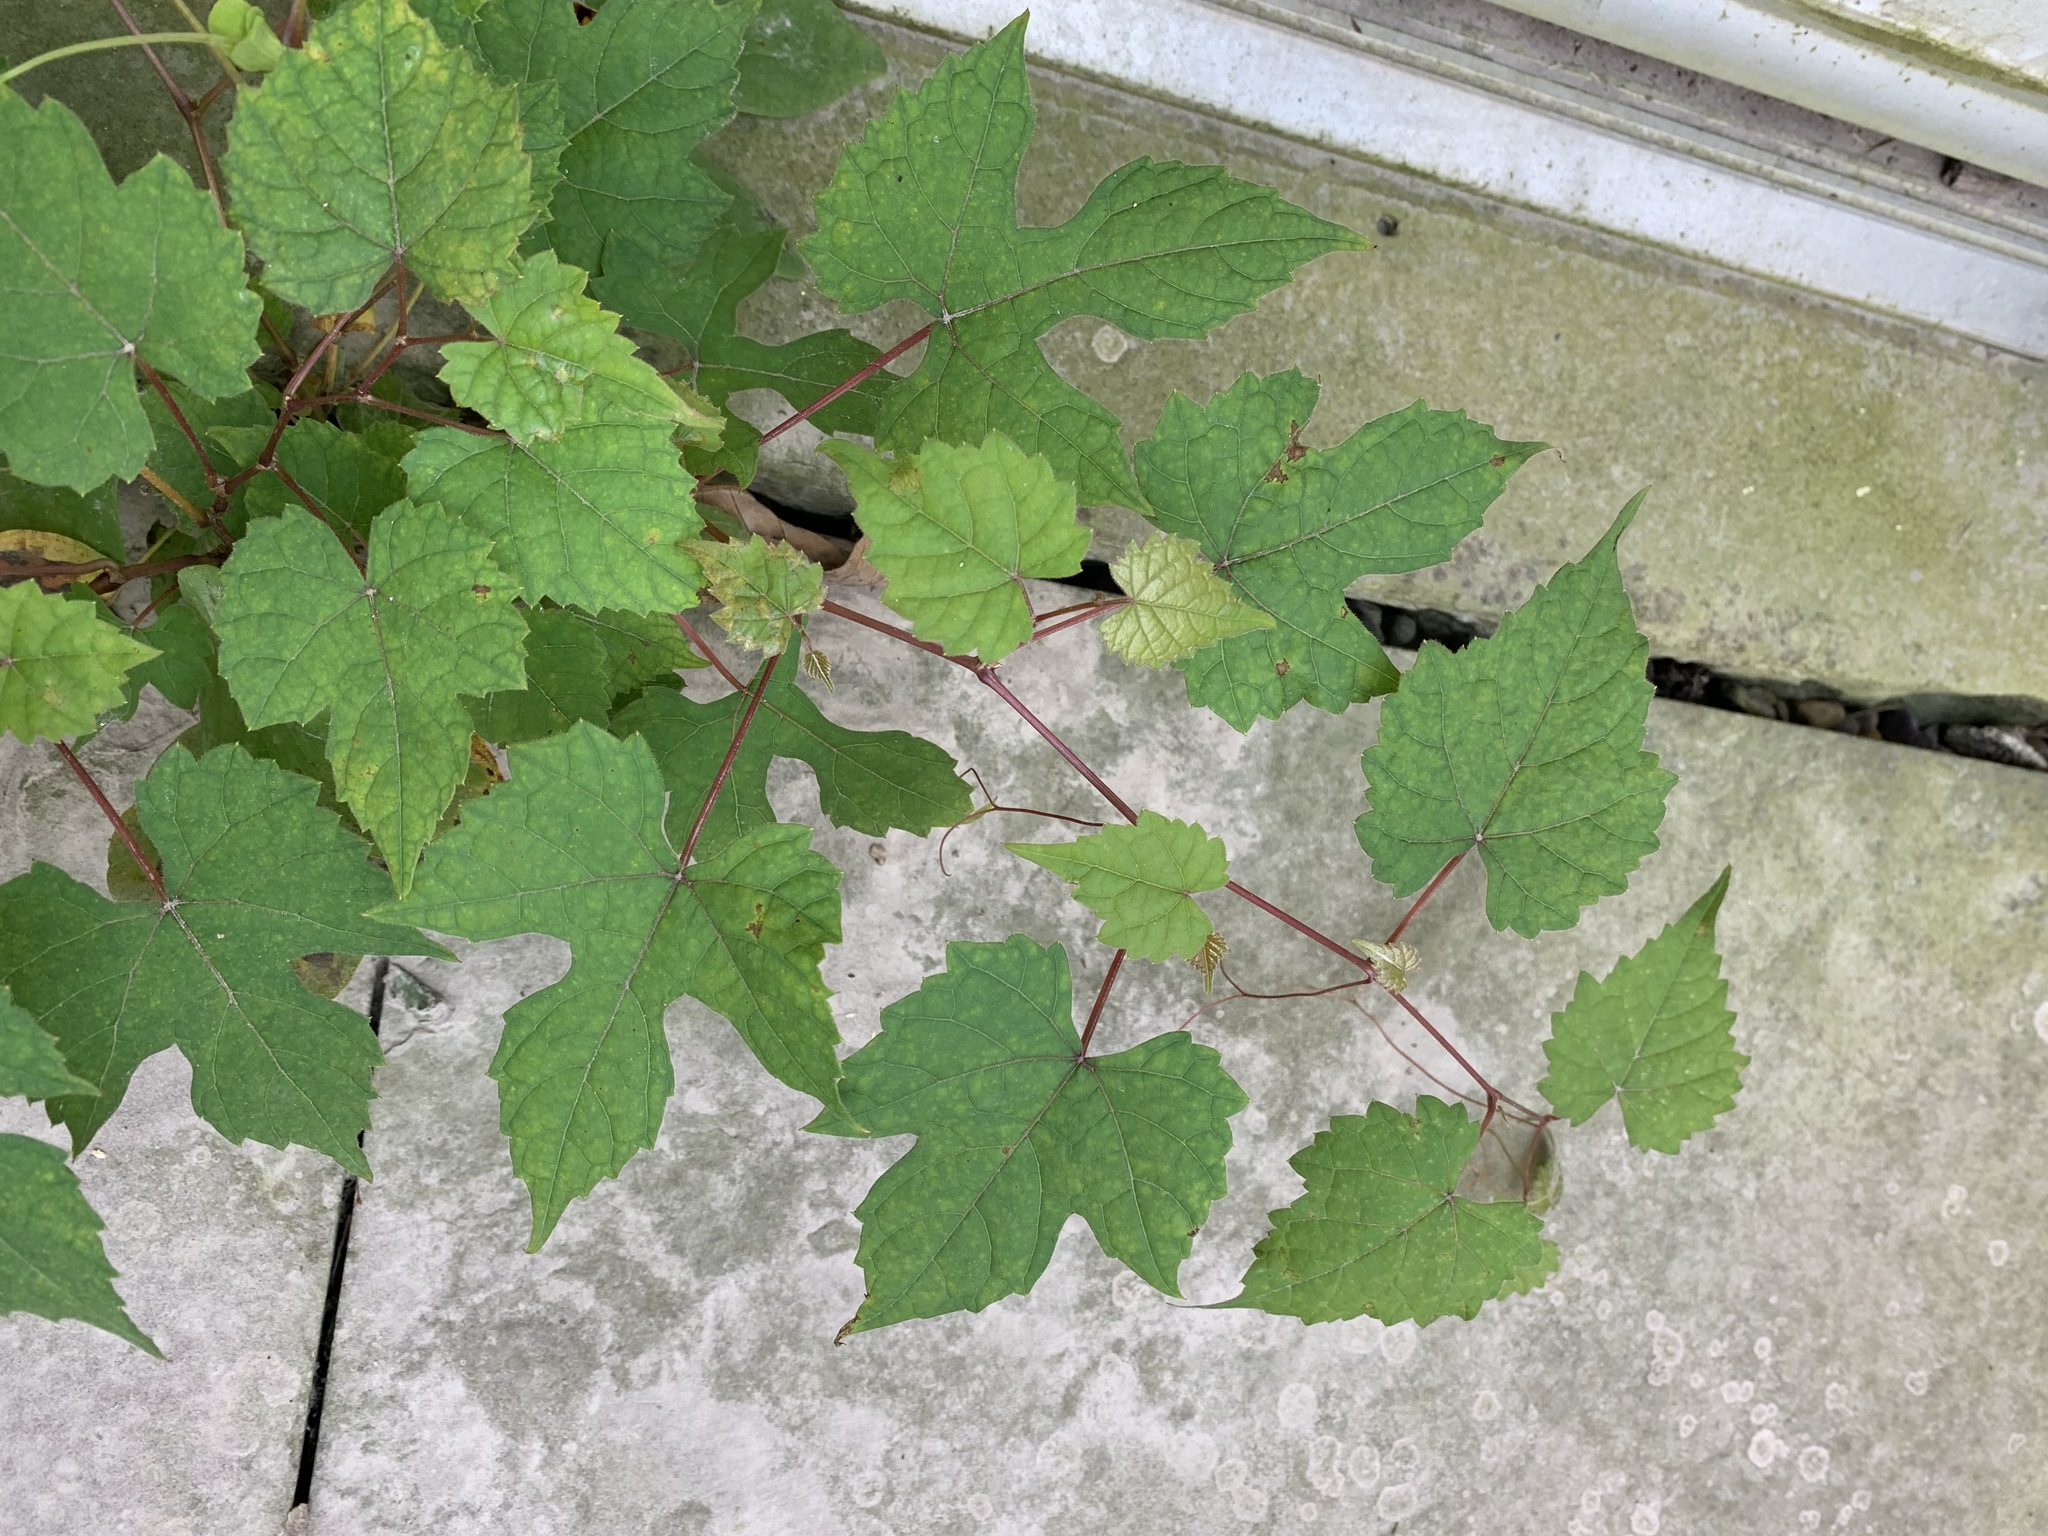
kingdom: Plantae
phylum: Tracheophyta
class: Magnoliopsida
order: Vitales
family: Vitaceae
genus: Ampelopsis
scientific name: Ampelopsis glandulosa
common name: Amur peppervine
